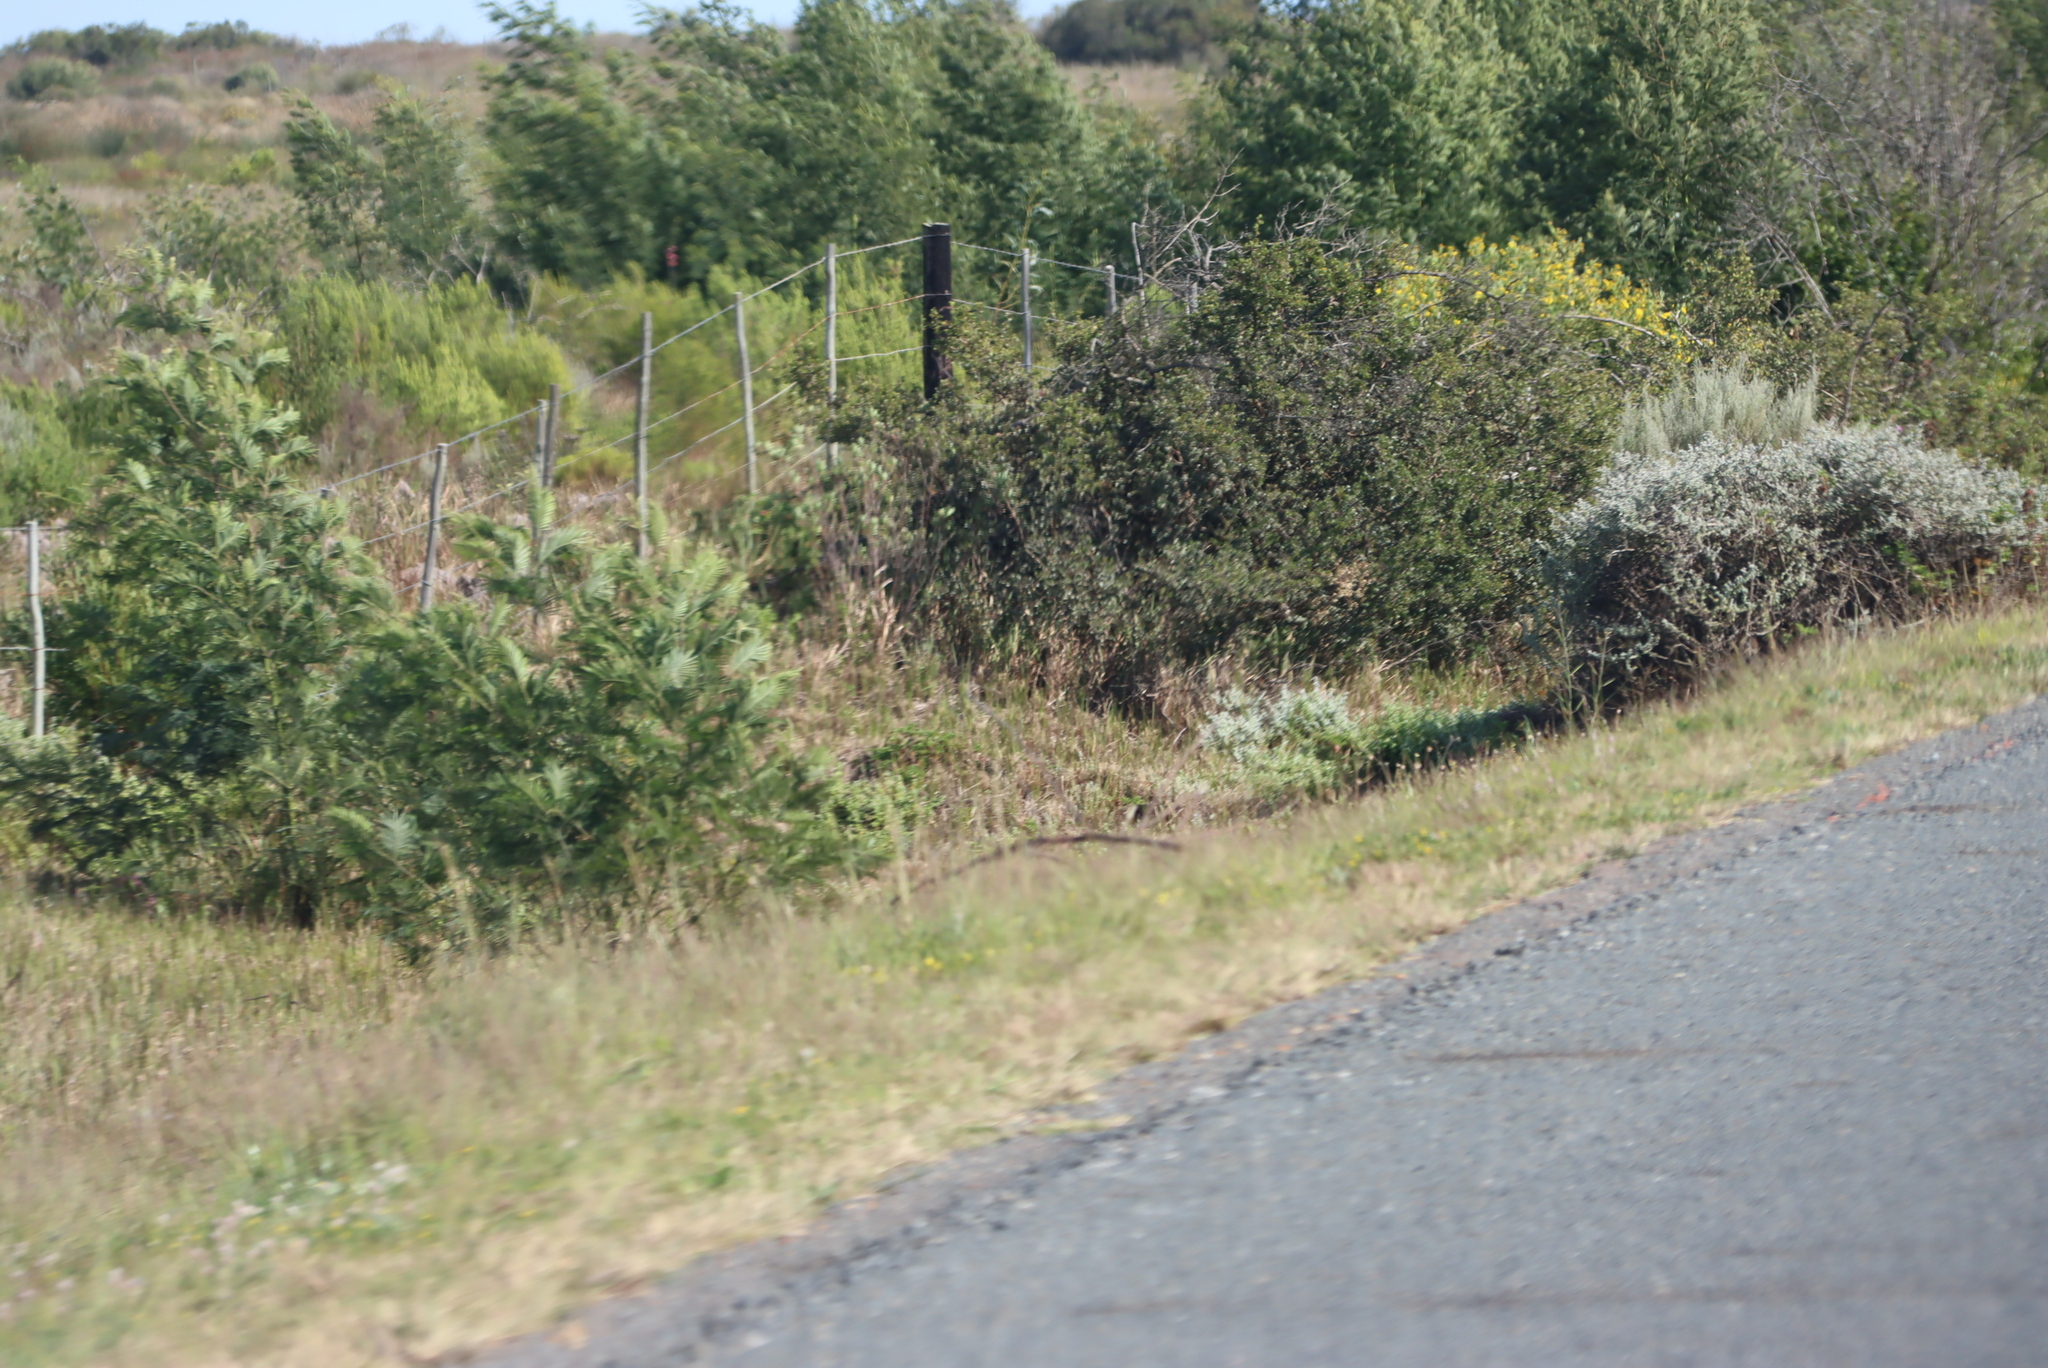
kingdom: Plantae
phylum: Tracheophyta
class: Magnoliopsida
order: Fabales
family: Fabaceae
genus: Acacia
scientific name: Acacia mearnsii
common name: Black wattle
